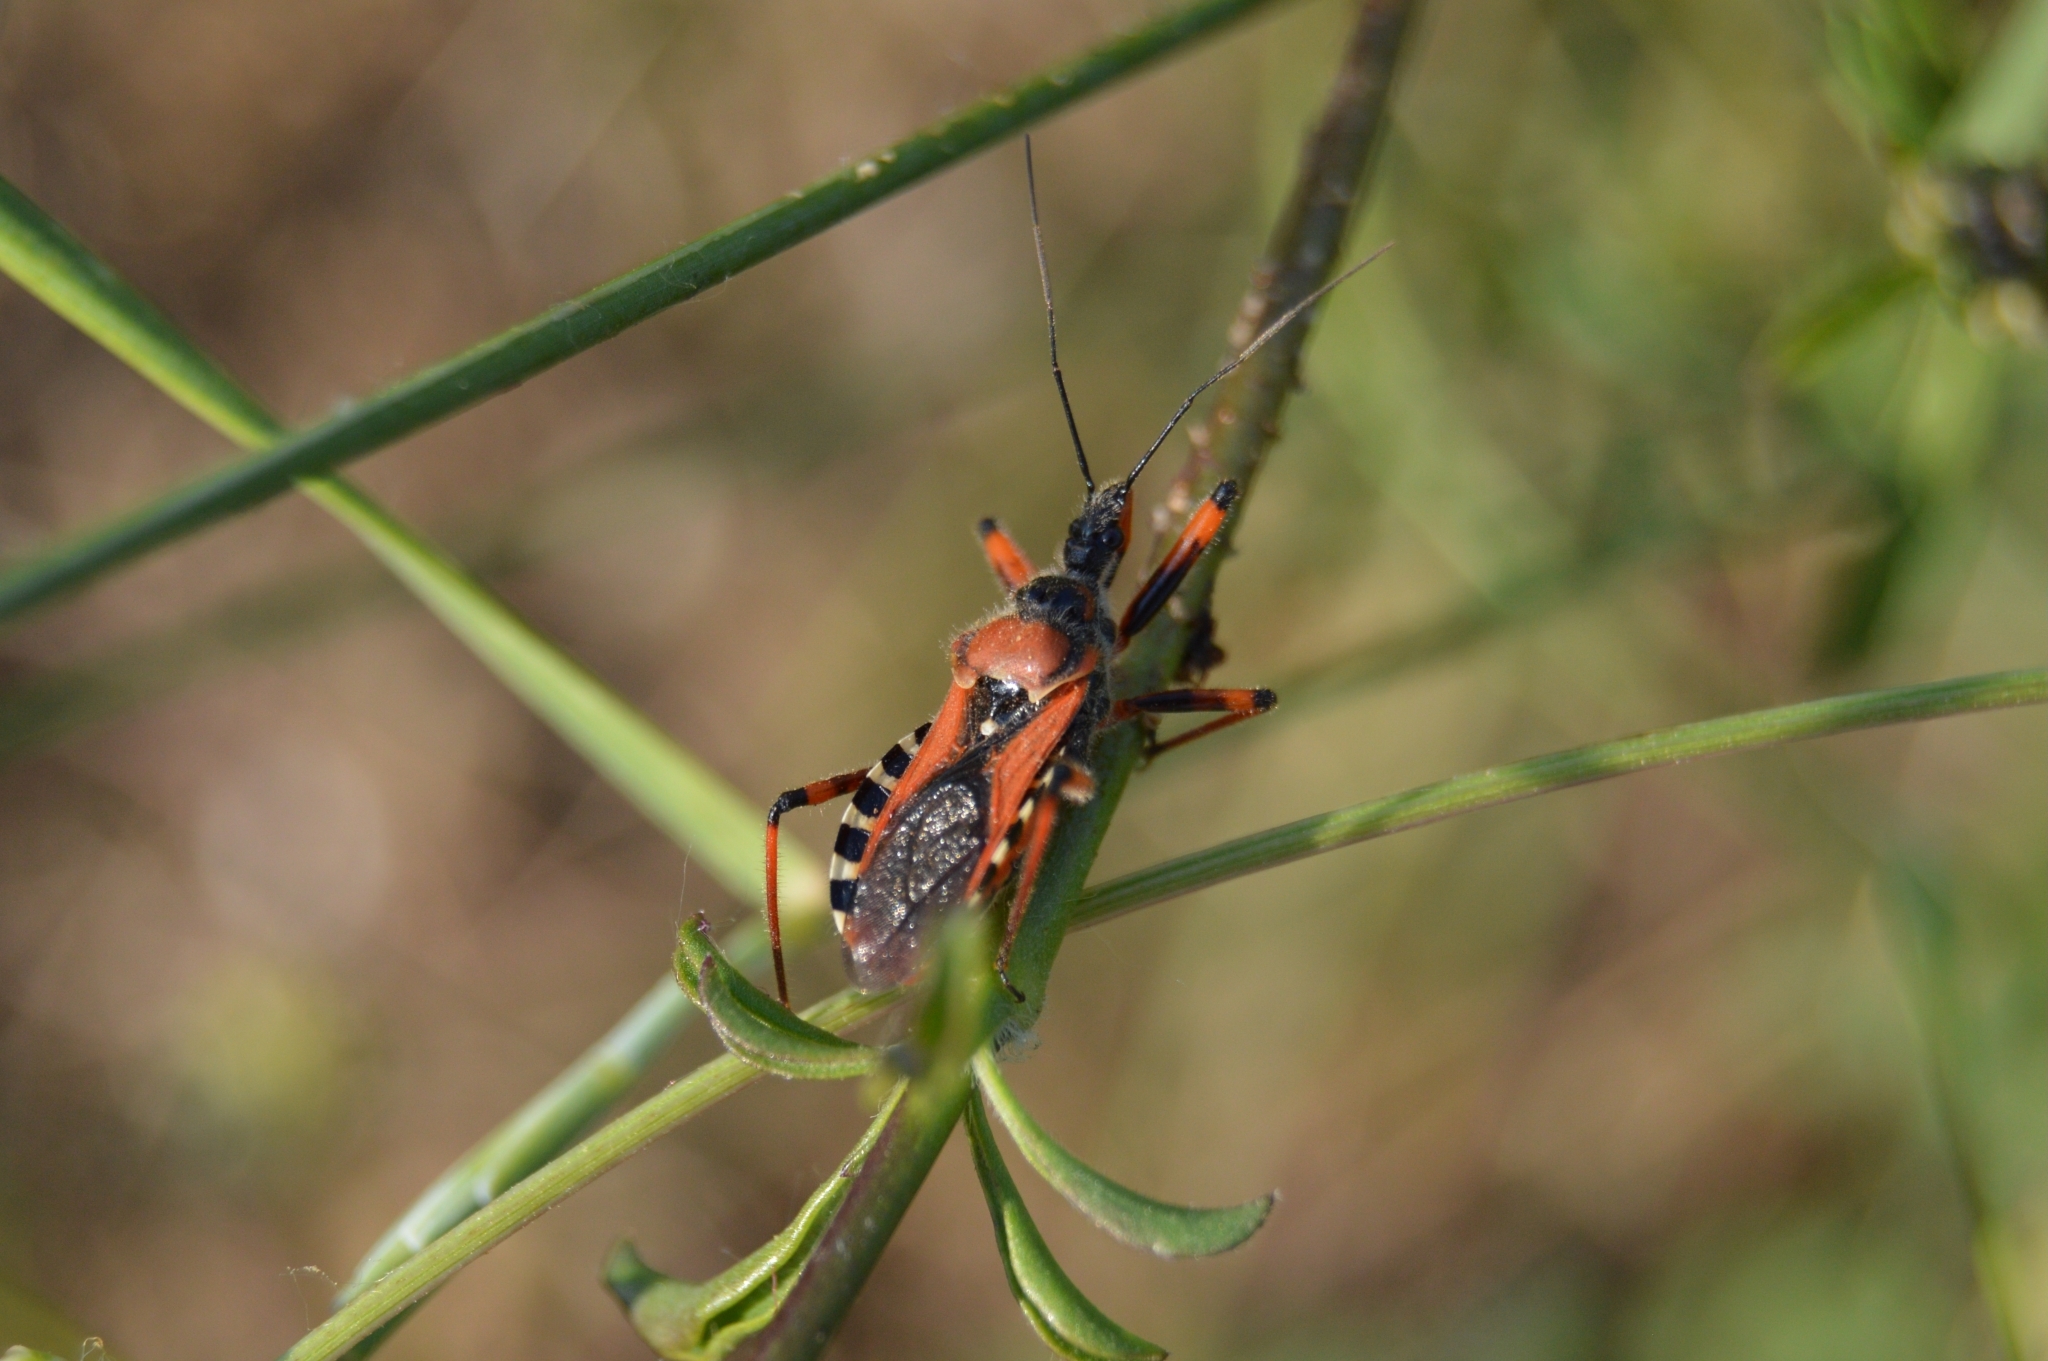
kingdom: Animalia
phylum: Arthropoda
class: Insecta
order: Hemiptera
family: Reduviidae
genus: Rhynocoris
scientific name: Rhynocoris iracundus
